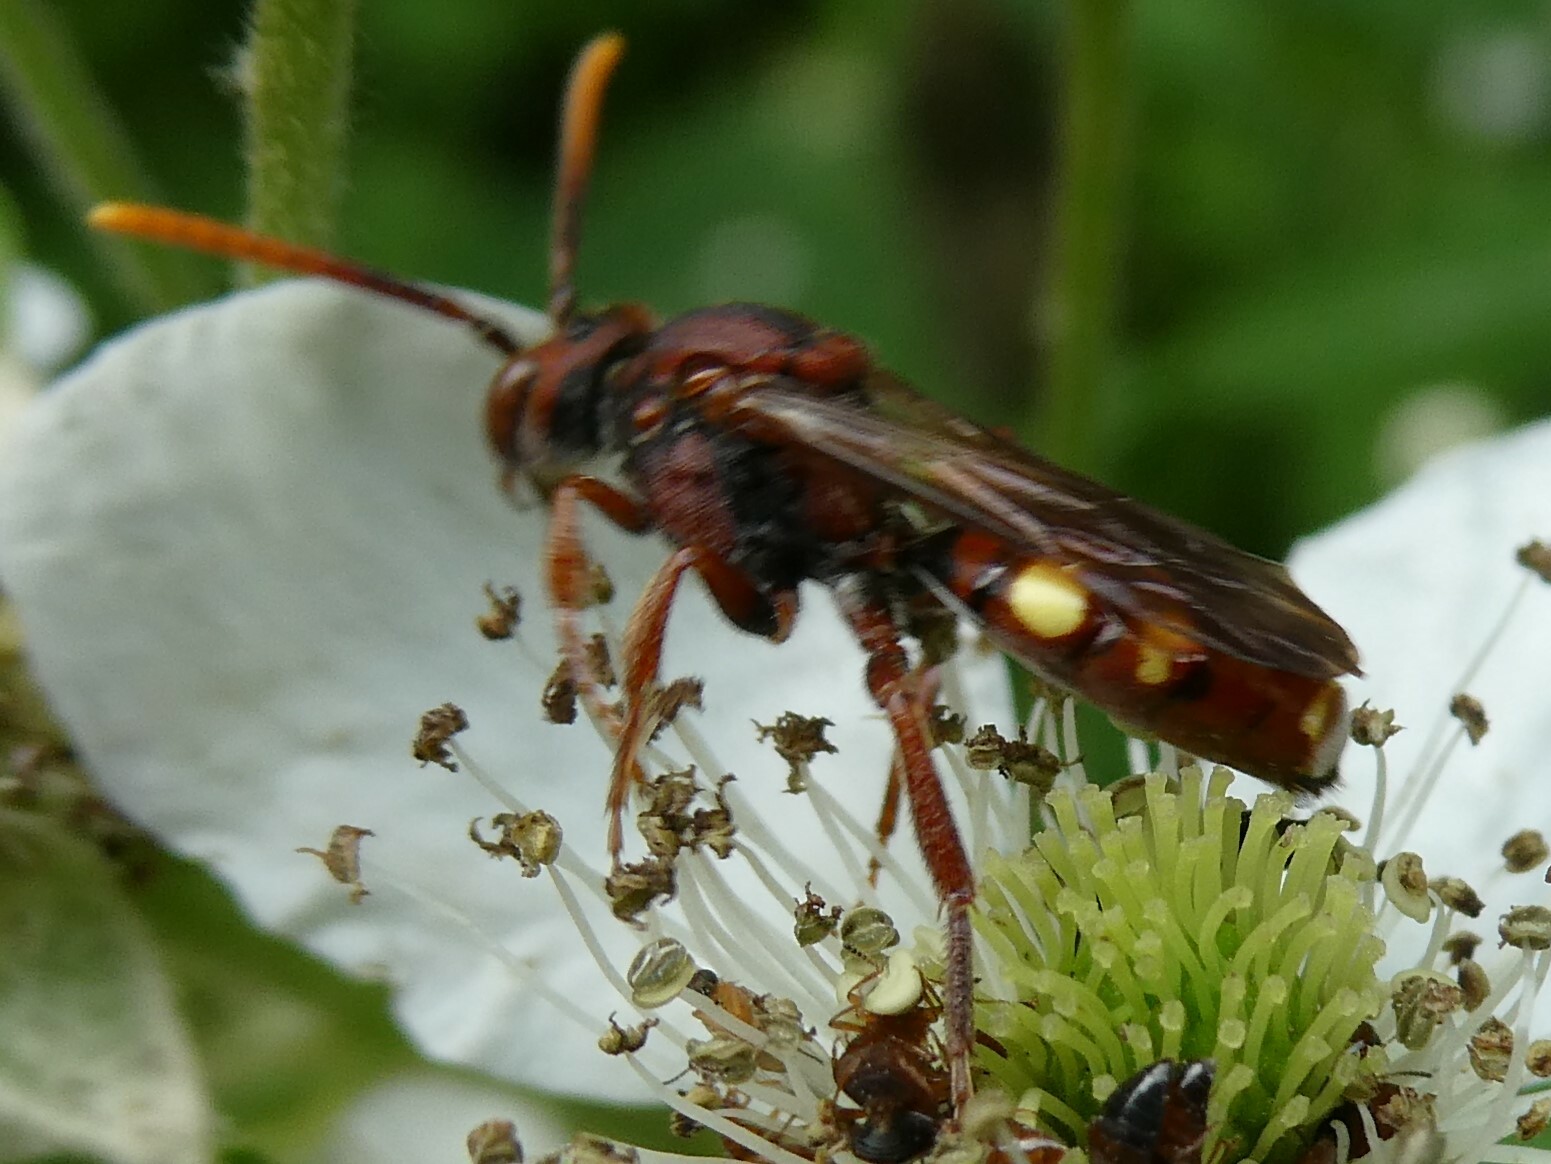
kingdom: Animalia
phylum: Arthropoda
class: Insecta
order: Hymenoptera
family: Apidae
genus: Nomada
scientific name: Nomada depressa
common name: Depressed cuckoo nomad bee
